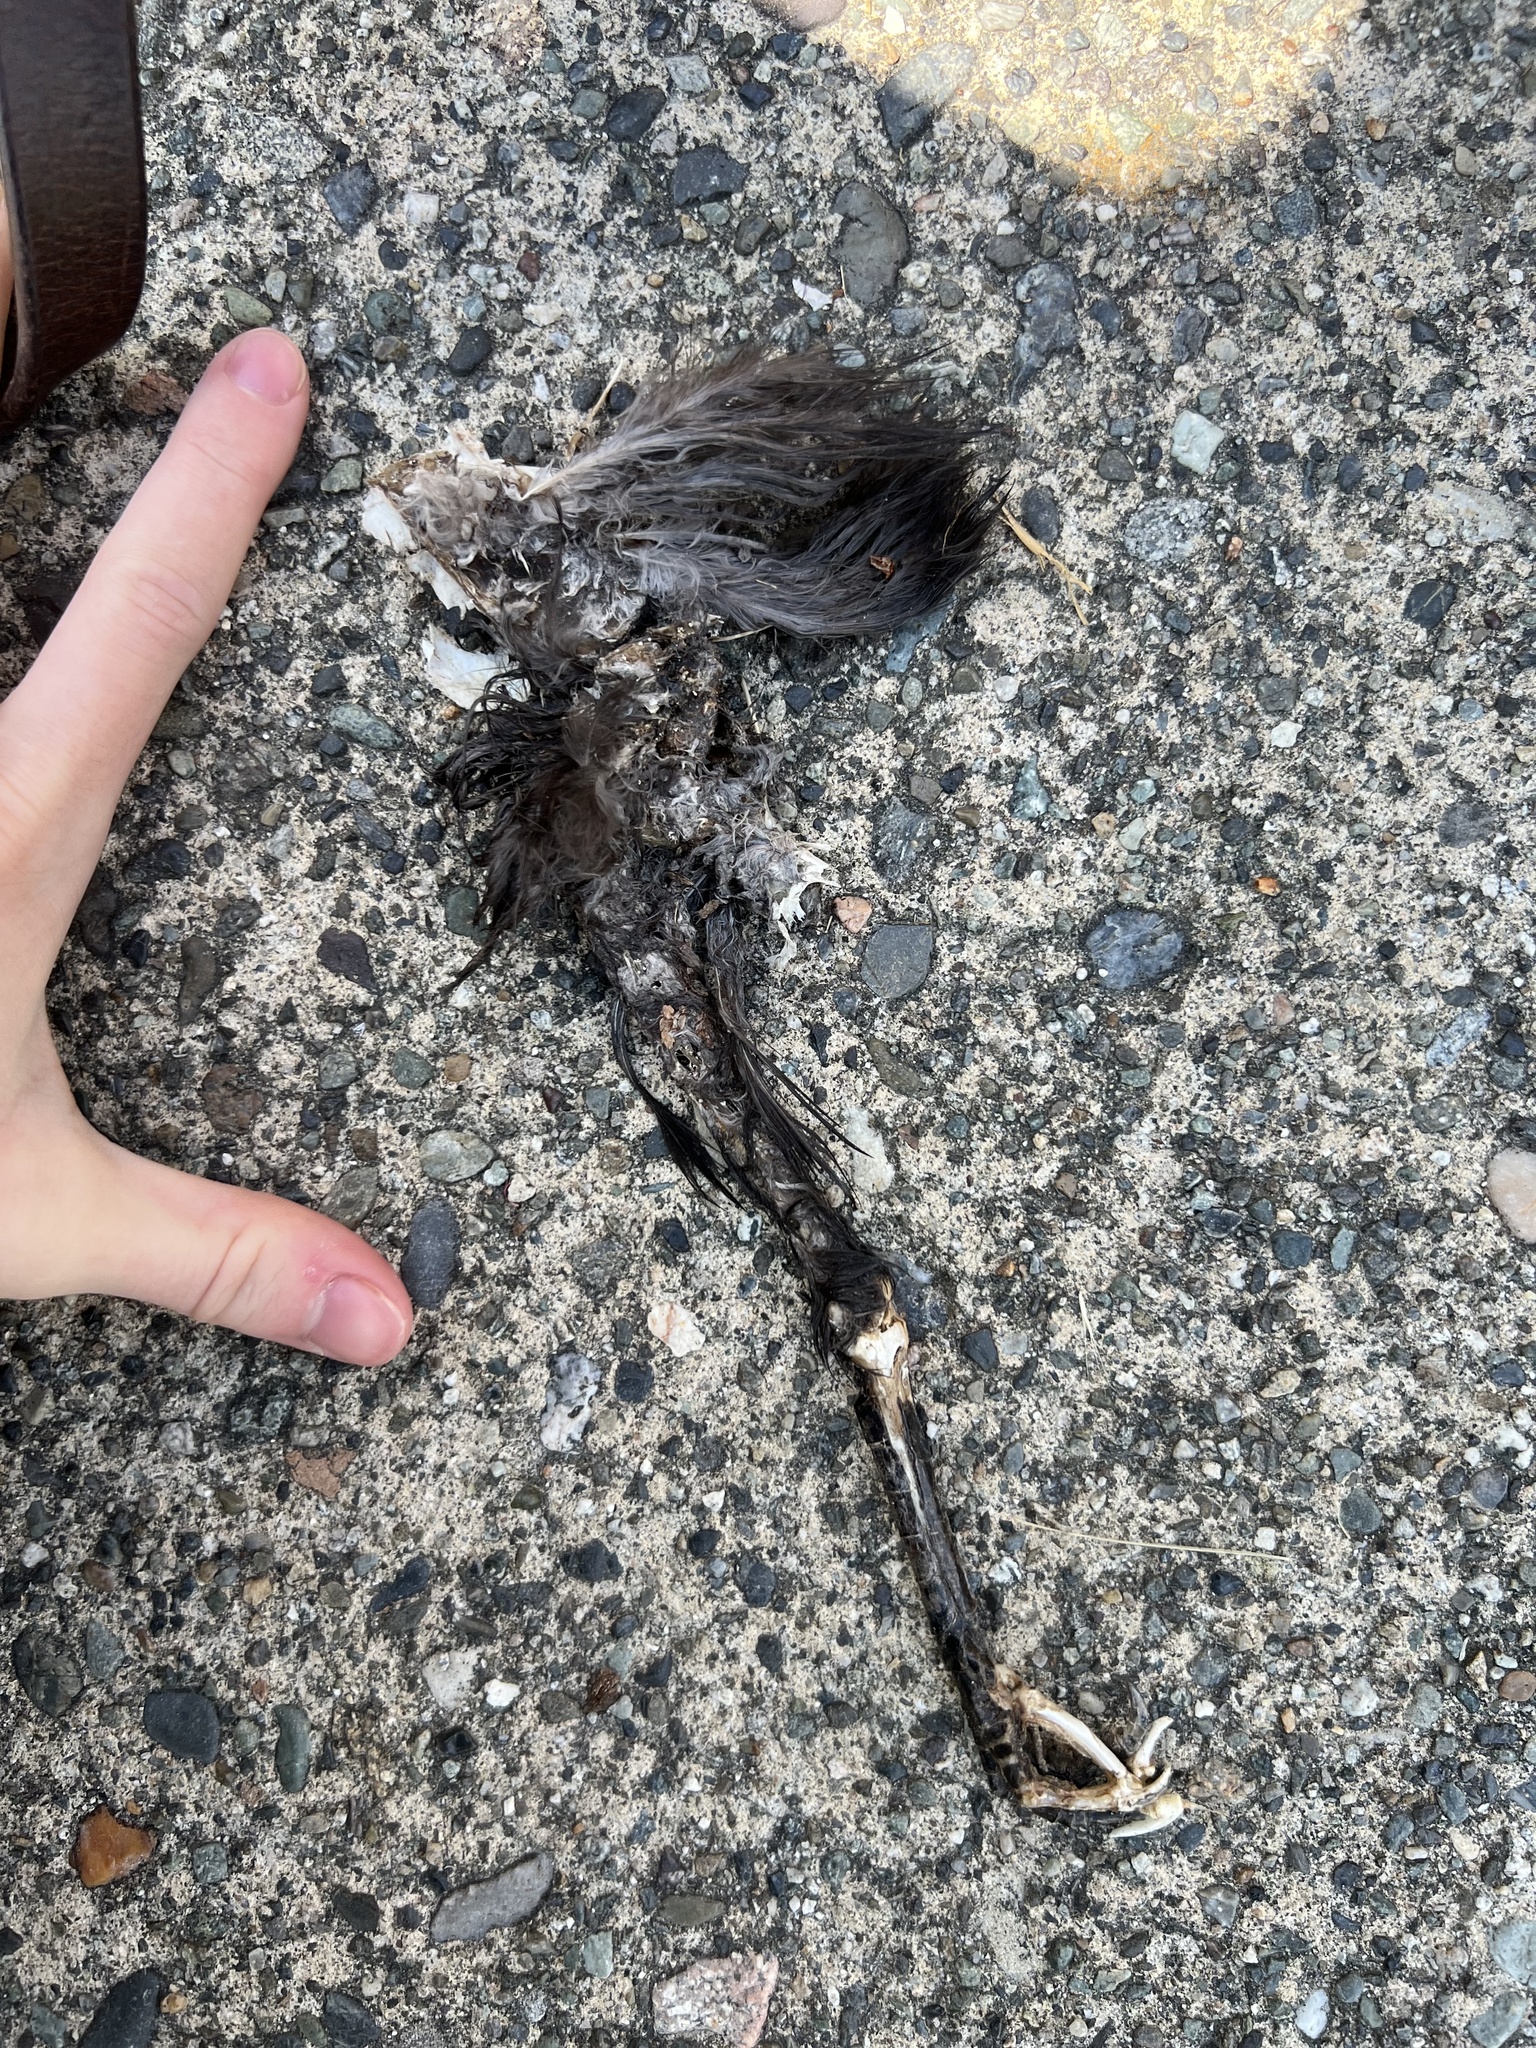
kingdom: Animalia
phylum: Chordata
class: Aves
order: Passeriformes
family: Corvidae
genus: Corvus
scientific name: Corvus brachyrhynchos
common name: American crow
